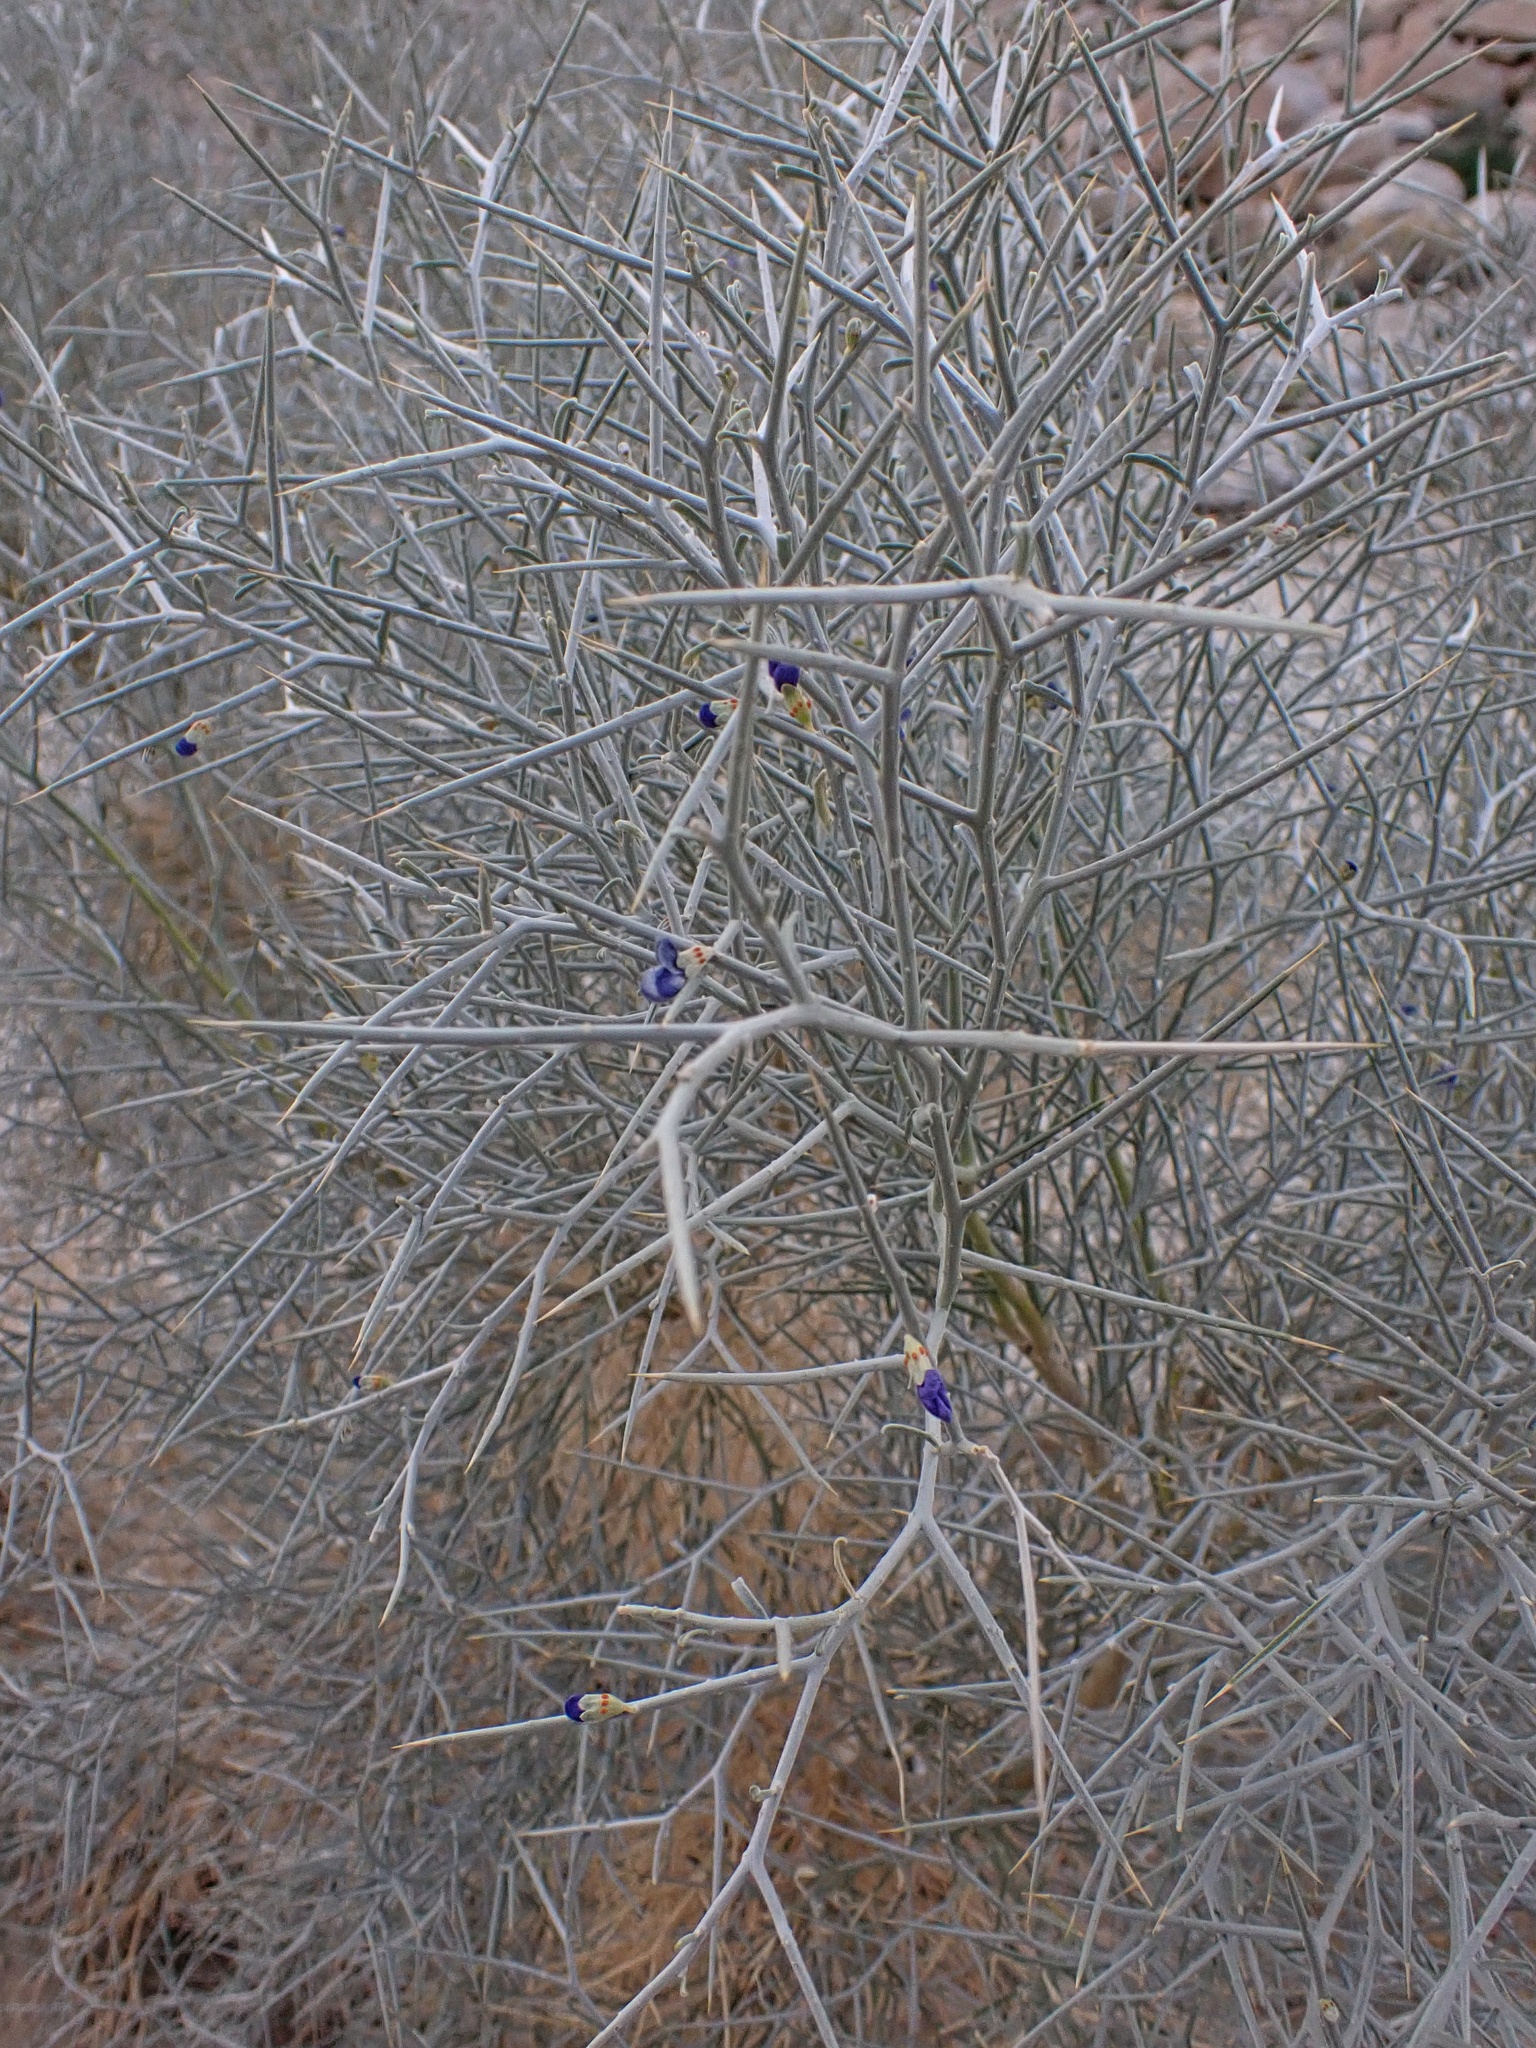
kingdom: Plantae
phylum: Tracheophyta
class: Magnoliopsida
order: Fabales
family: Fabaceae
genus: Psorothamnus
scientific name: Psorothamnus spinosus
